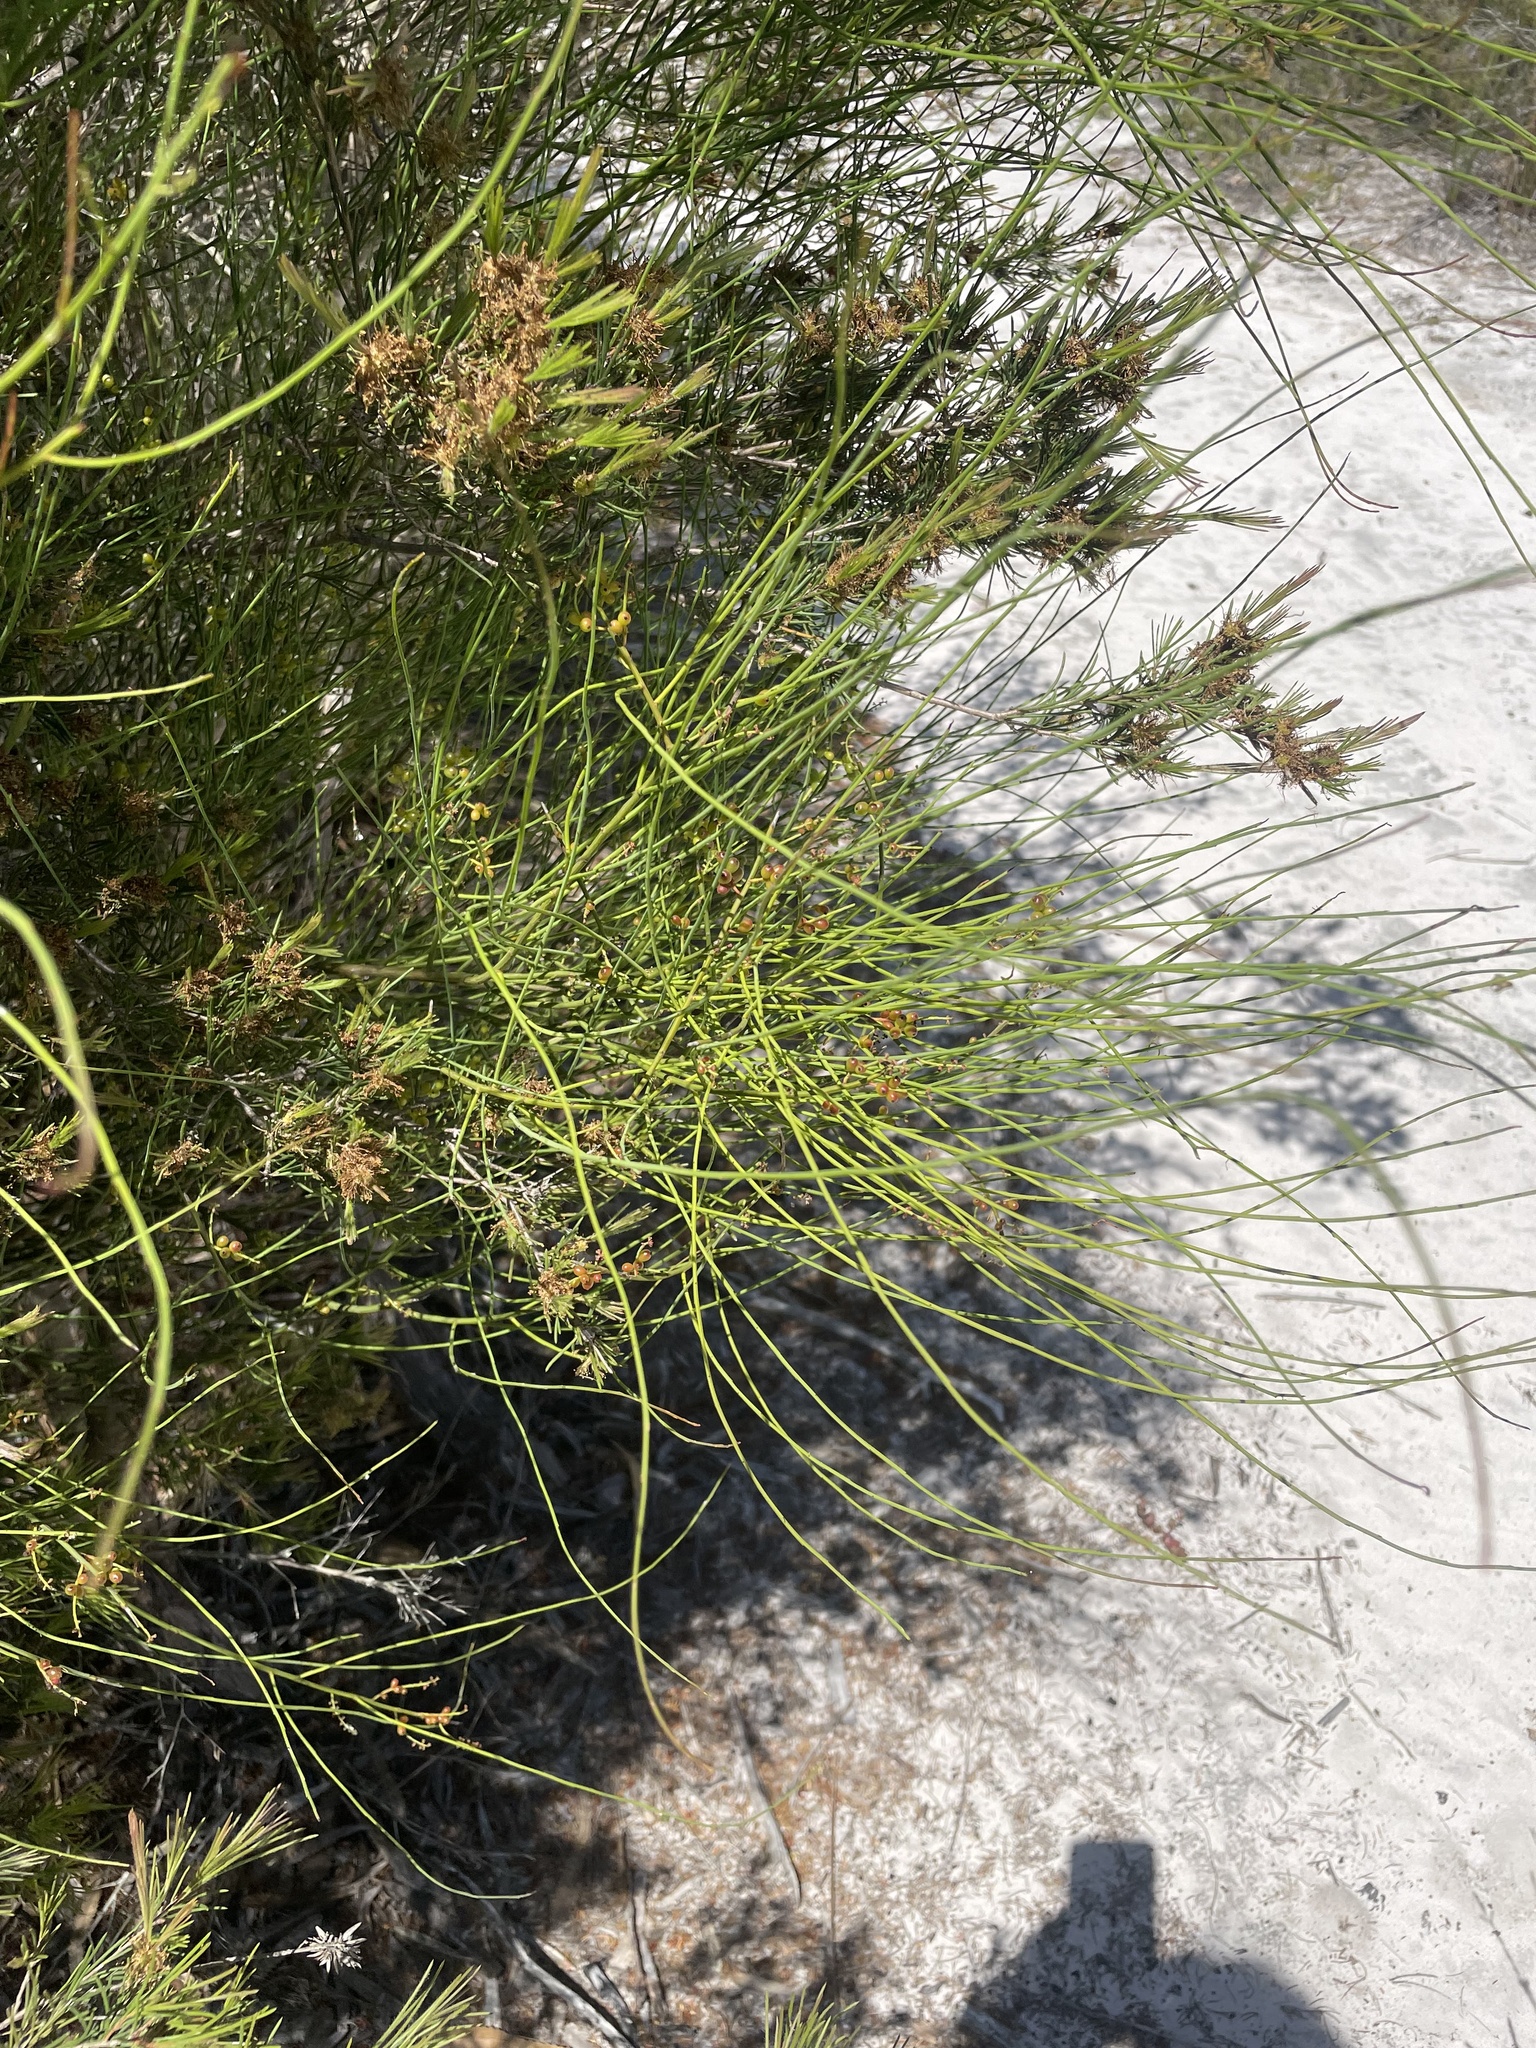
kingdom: Plantae
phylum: Tracheophyta
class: Magnoliopsida
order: Santalales
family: Amphorogynaceae
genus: Leptomeria
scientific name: Leptomeria acida
